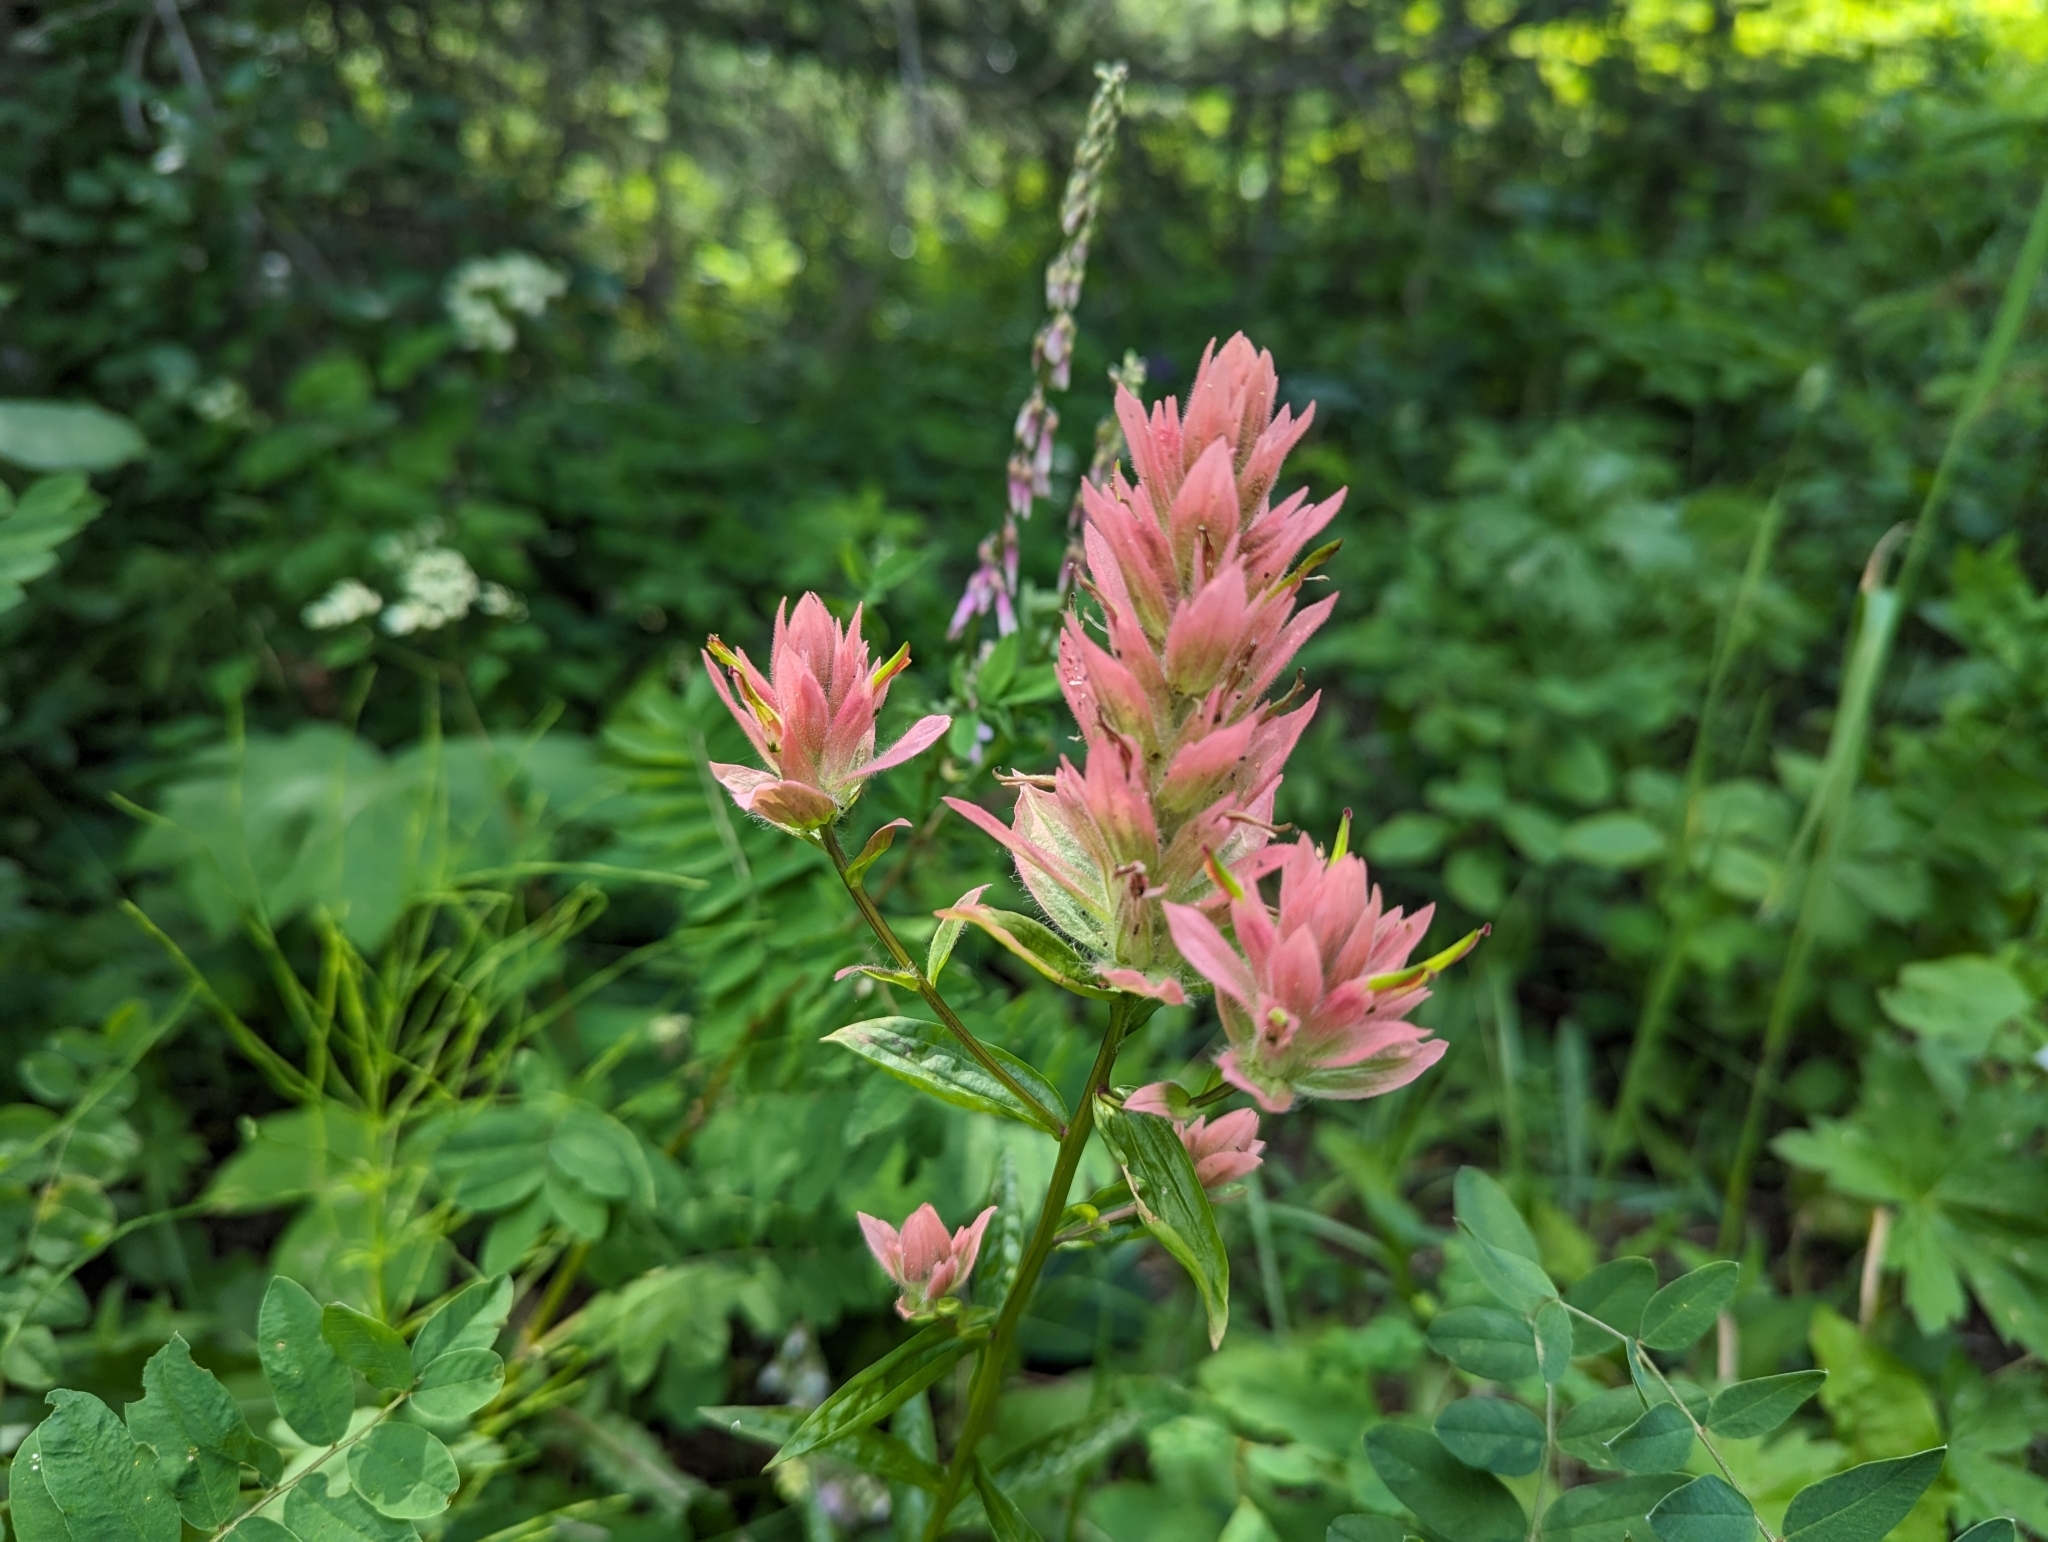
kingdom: Plantae
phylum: Tracheophyta
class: Magnoliopsida
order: Lamiales
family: Orobanchaceae
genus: Castilleja
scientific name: Castilleja miniata
